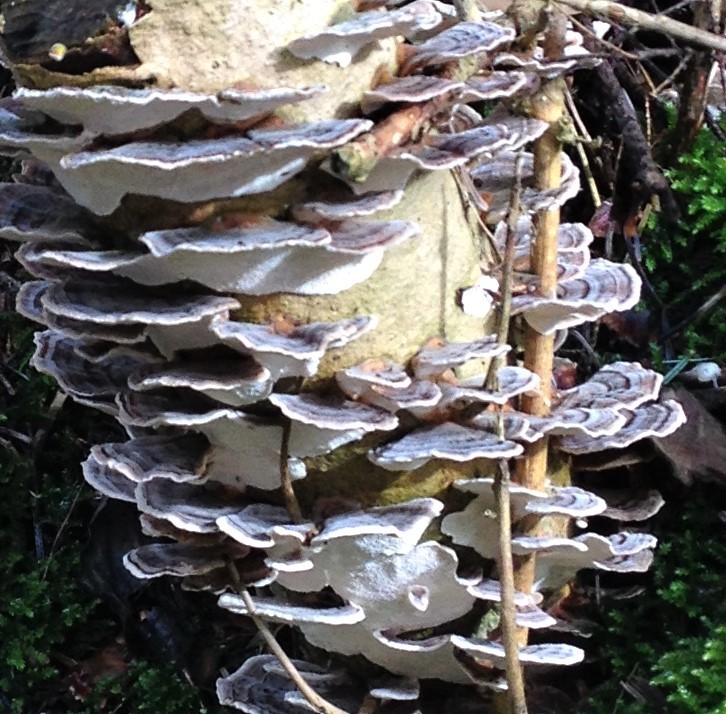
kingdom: Fungi
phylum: Basidiomycota
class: Agaricomycetes
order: Polyporales
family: Polyporaceae
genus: Trametes
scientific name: Trametes versicolor
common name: Turkeytail
